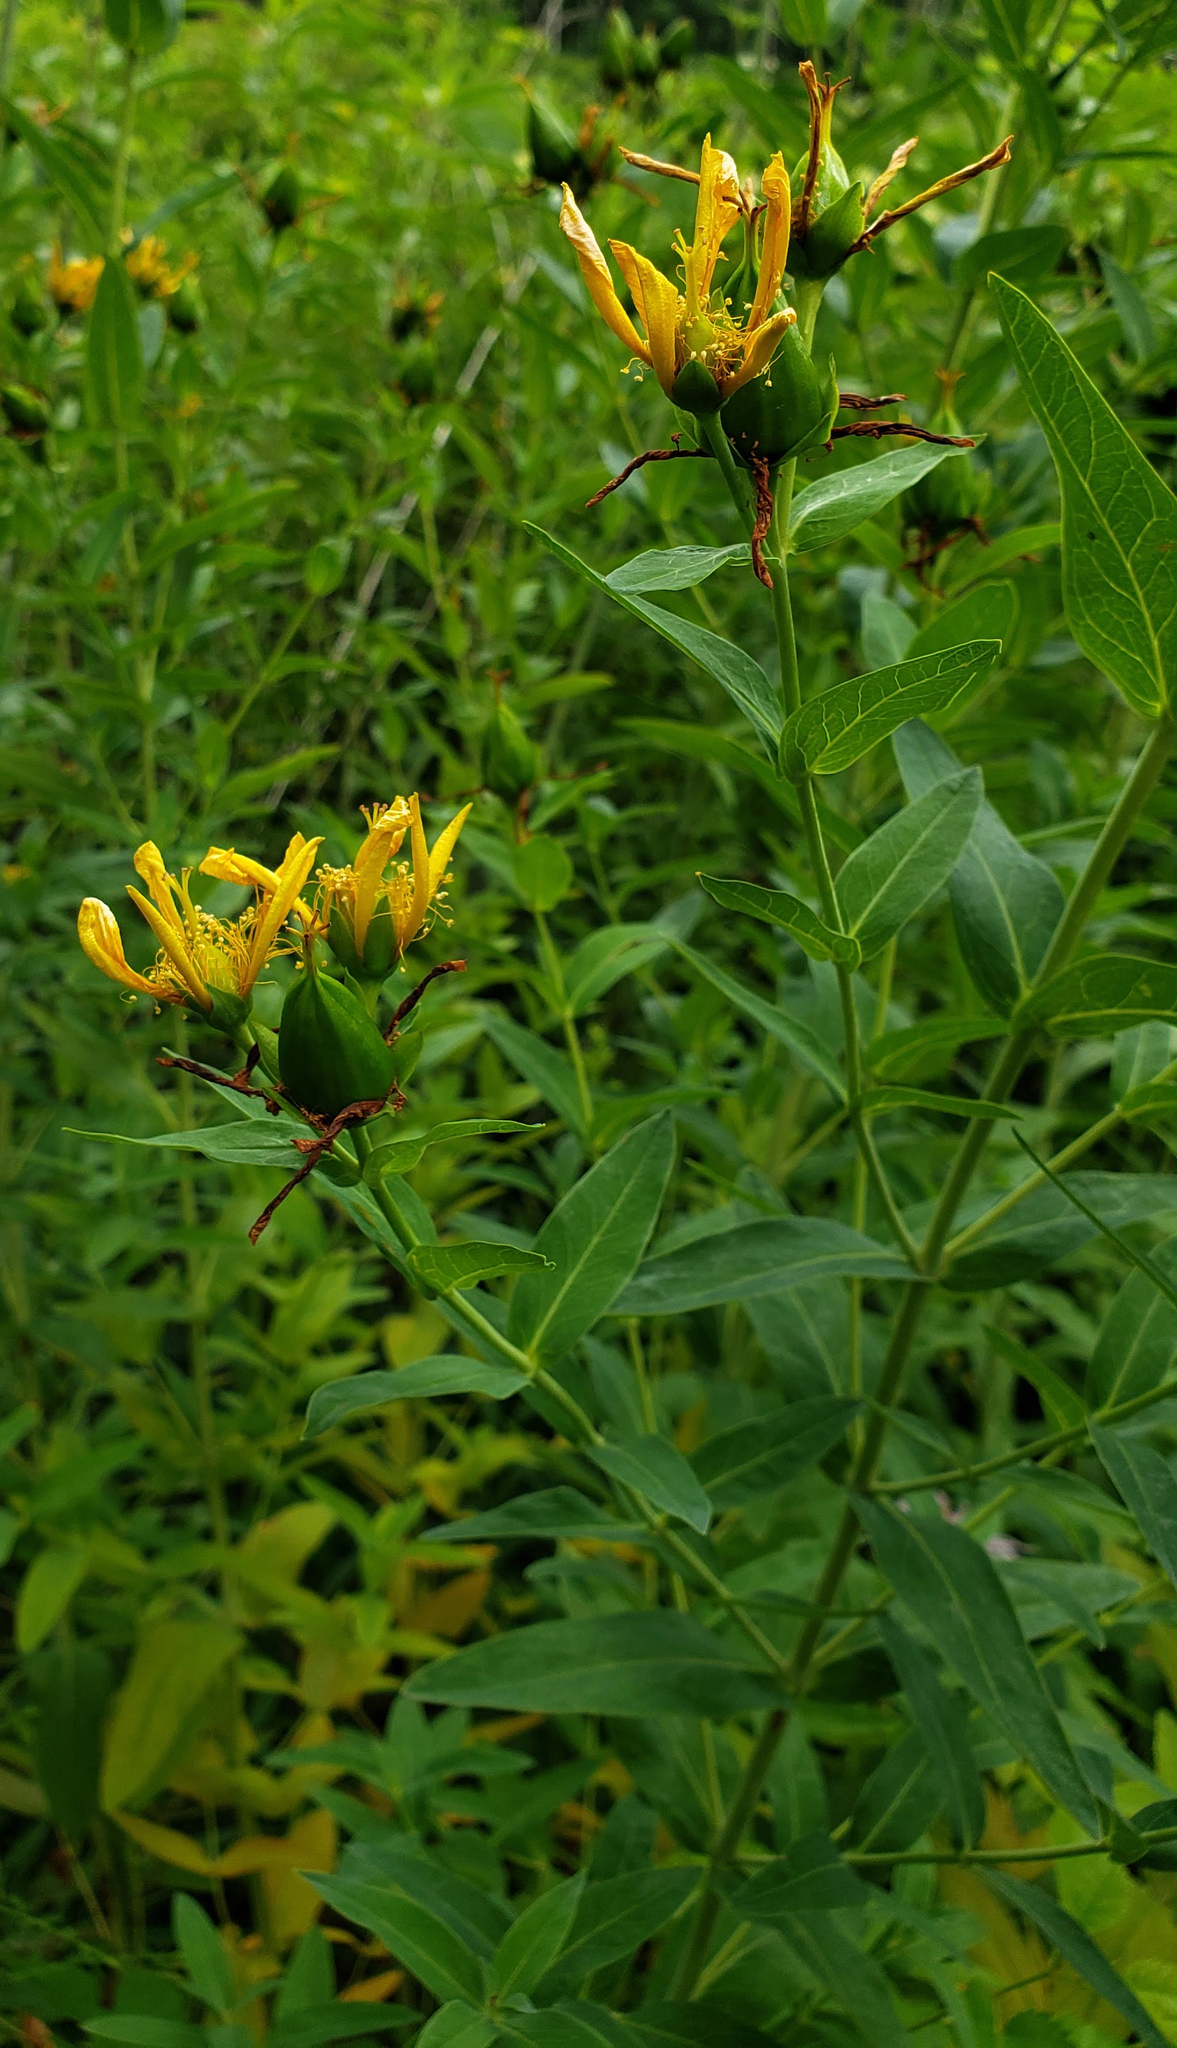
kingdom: Plantae
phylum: Tracheophyta
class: Magnoliopsida
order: Malpighiales
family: Hypericaceae
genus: Hypericum
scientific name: Hypericum ascyron
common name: Giant st. john's-wort
